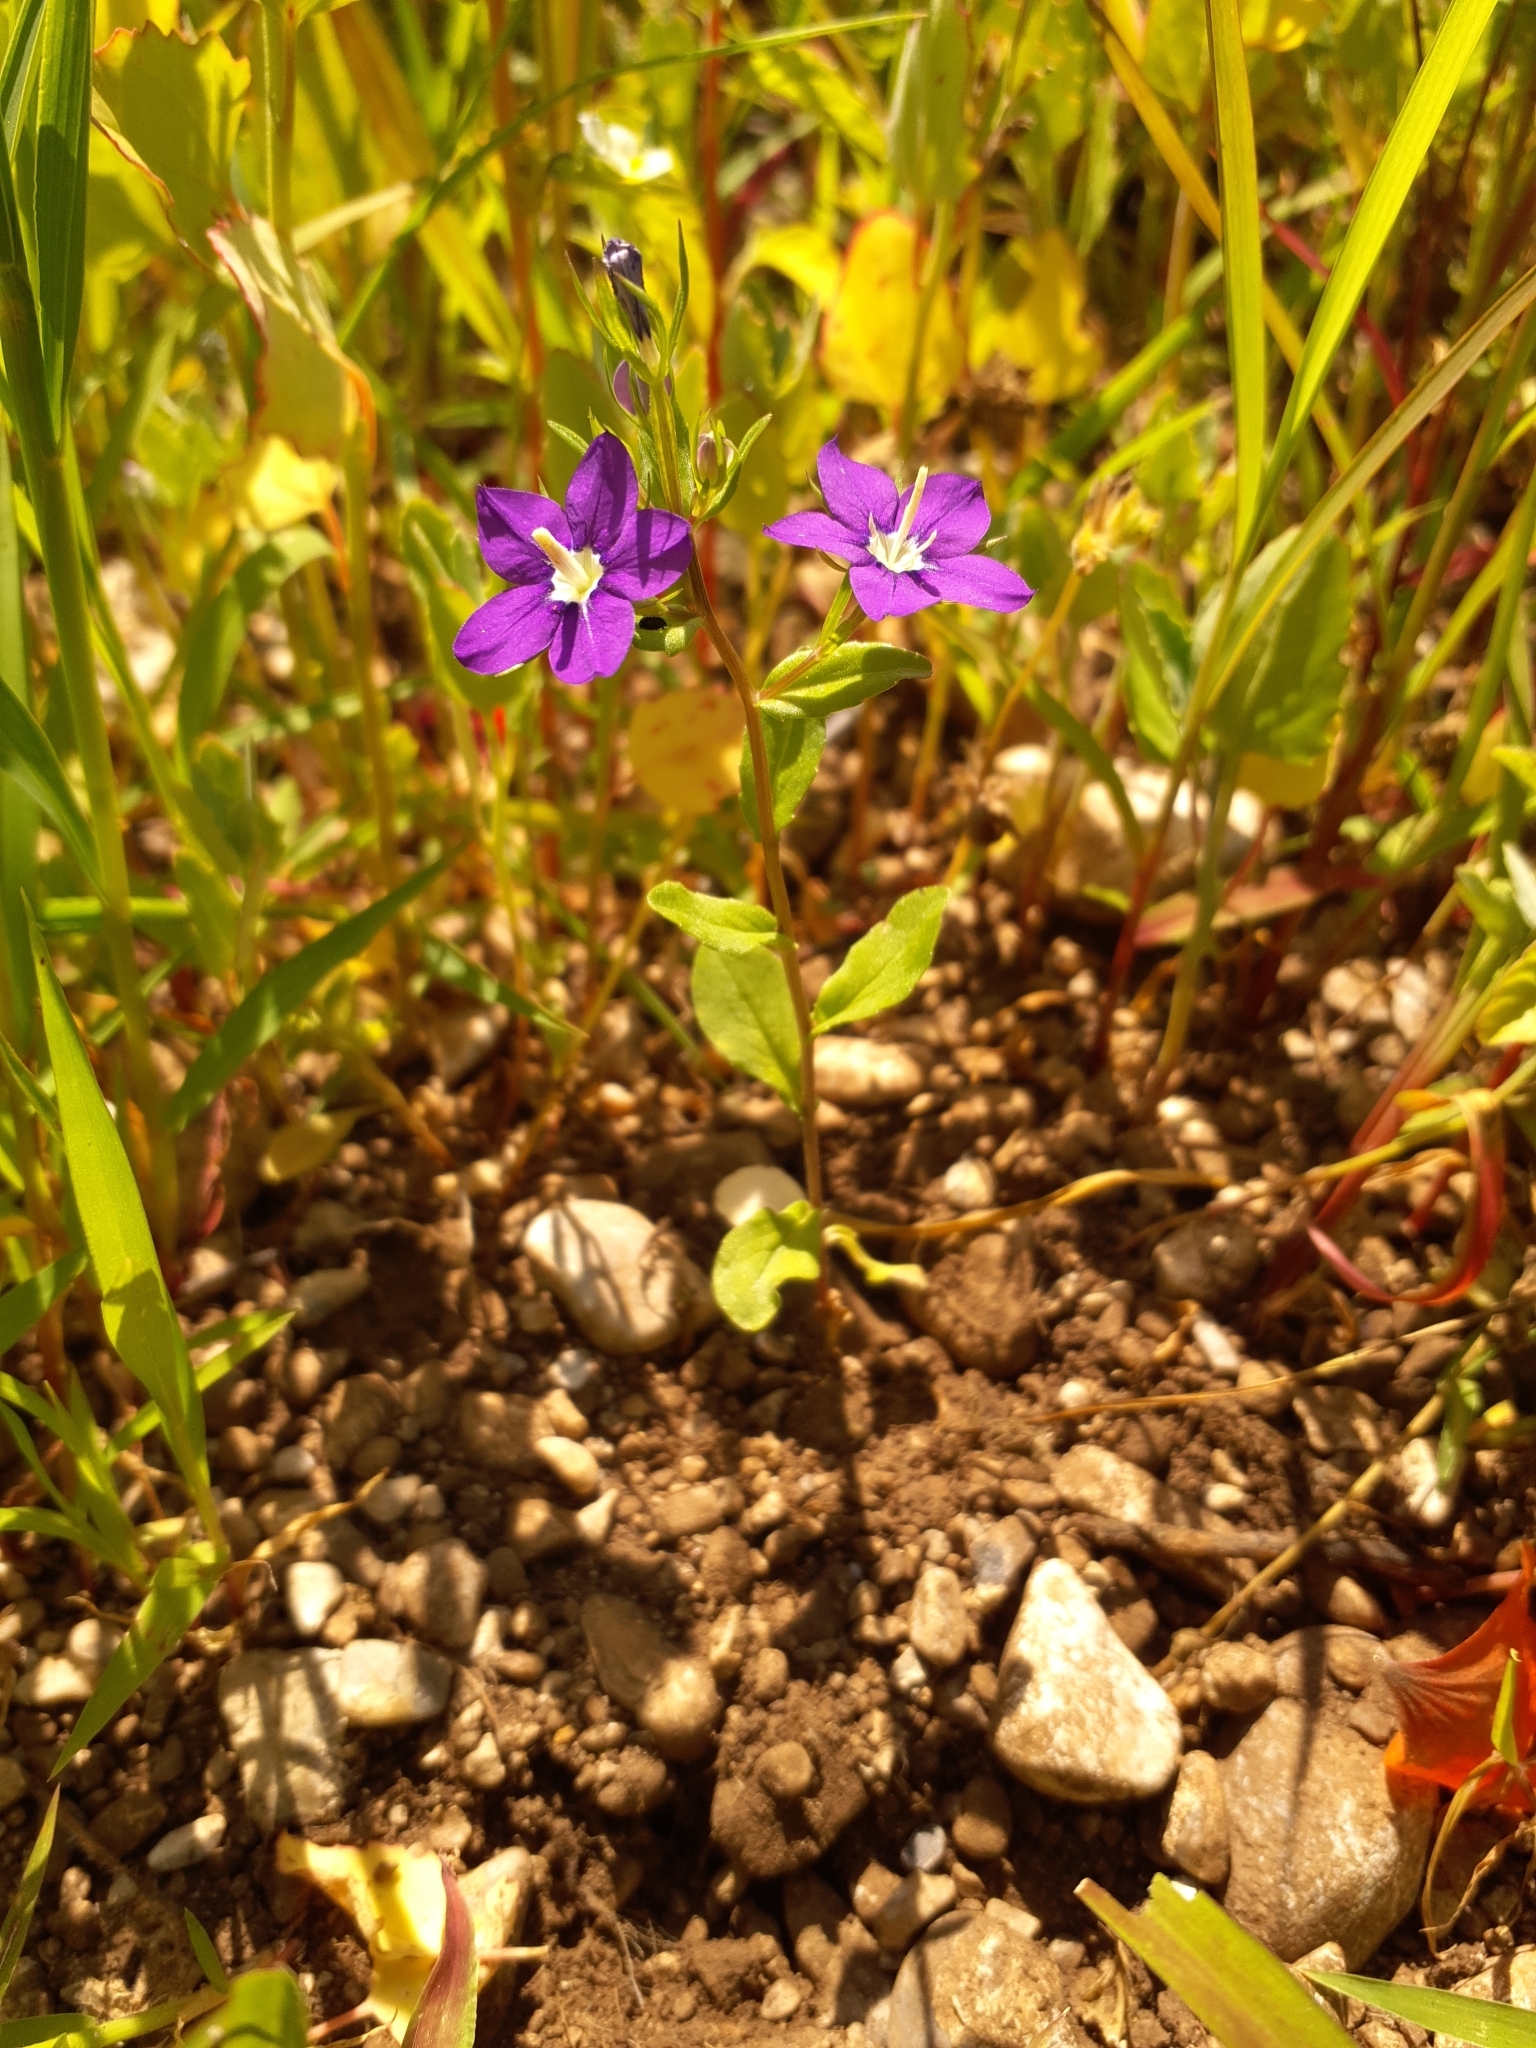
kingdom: Plantae
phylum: Tracheophyta
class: Magnoliopsida
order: Asterales
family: Campanulaceae
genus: Legousia
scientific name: Legousia speculum-veneris
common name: Large venus's-looking-glass
